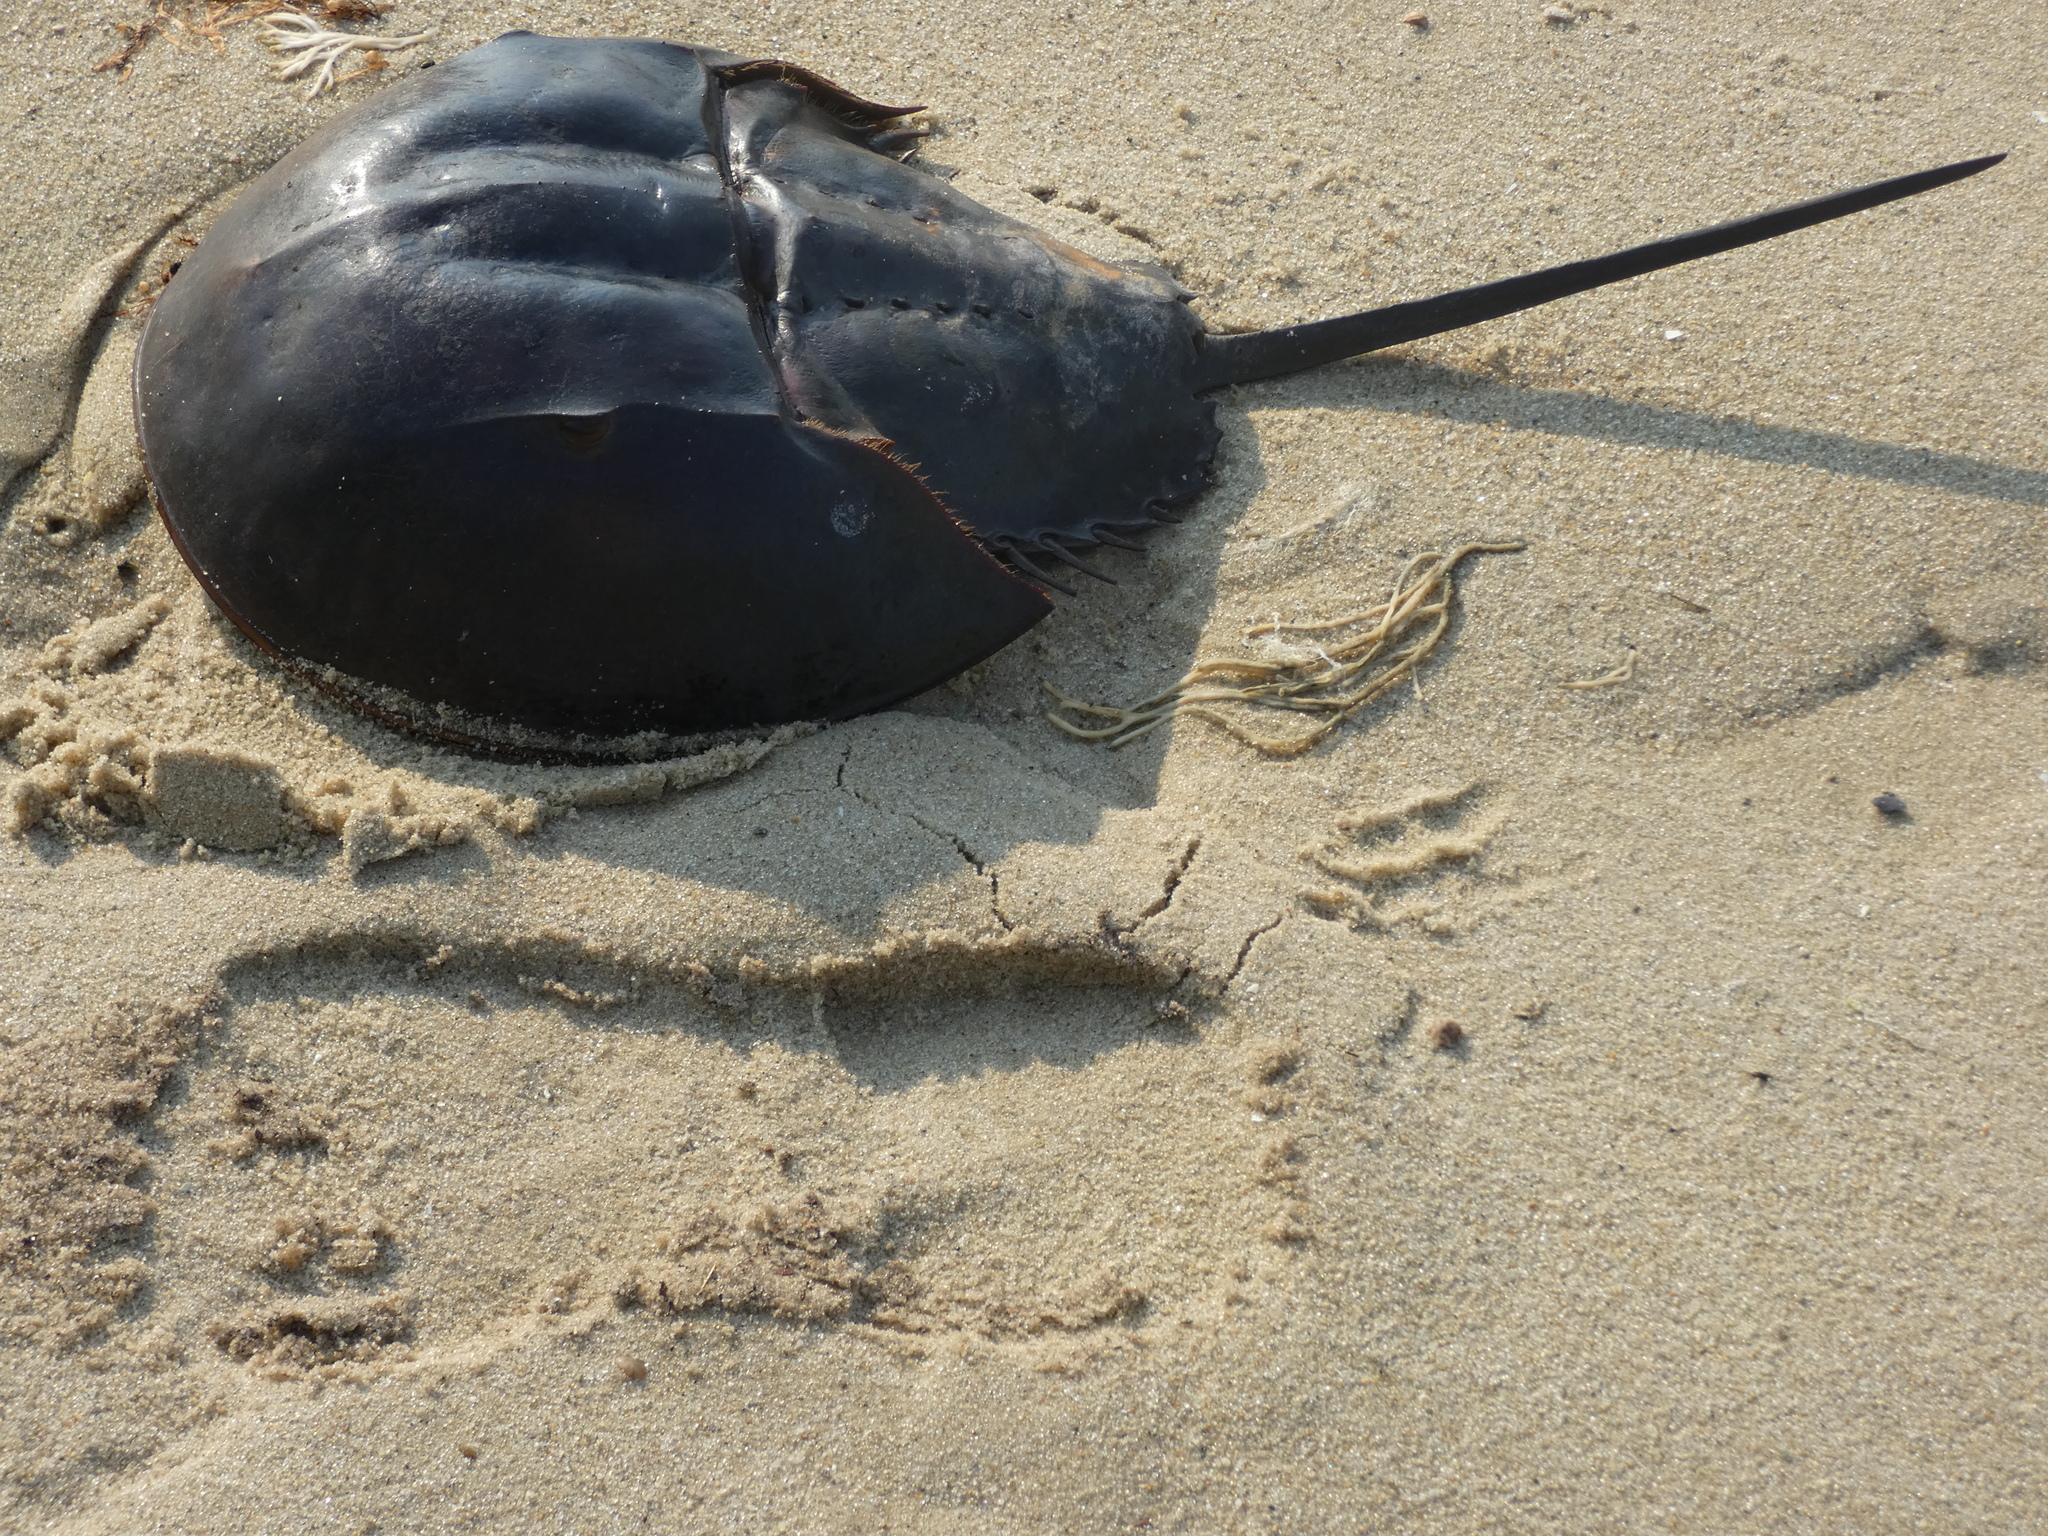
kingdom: Animalia
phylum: Arthropoda
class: Merostomata
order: Xiphosurida
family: Limulidae
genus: Limulus
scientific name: Limulus polyphemus
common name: Horseshoe crab
